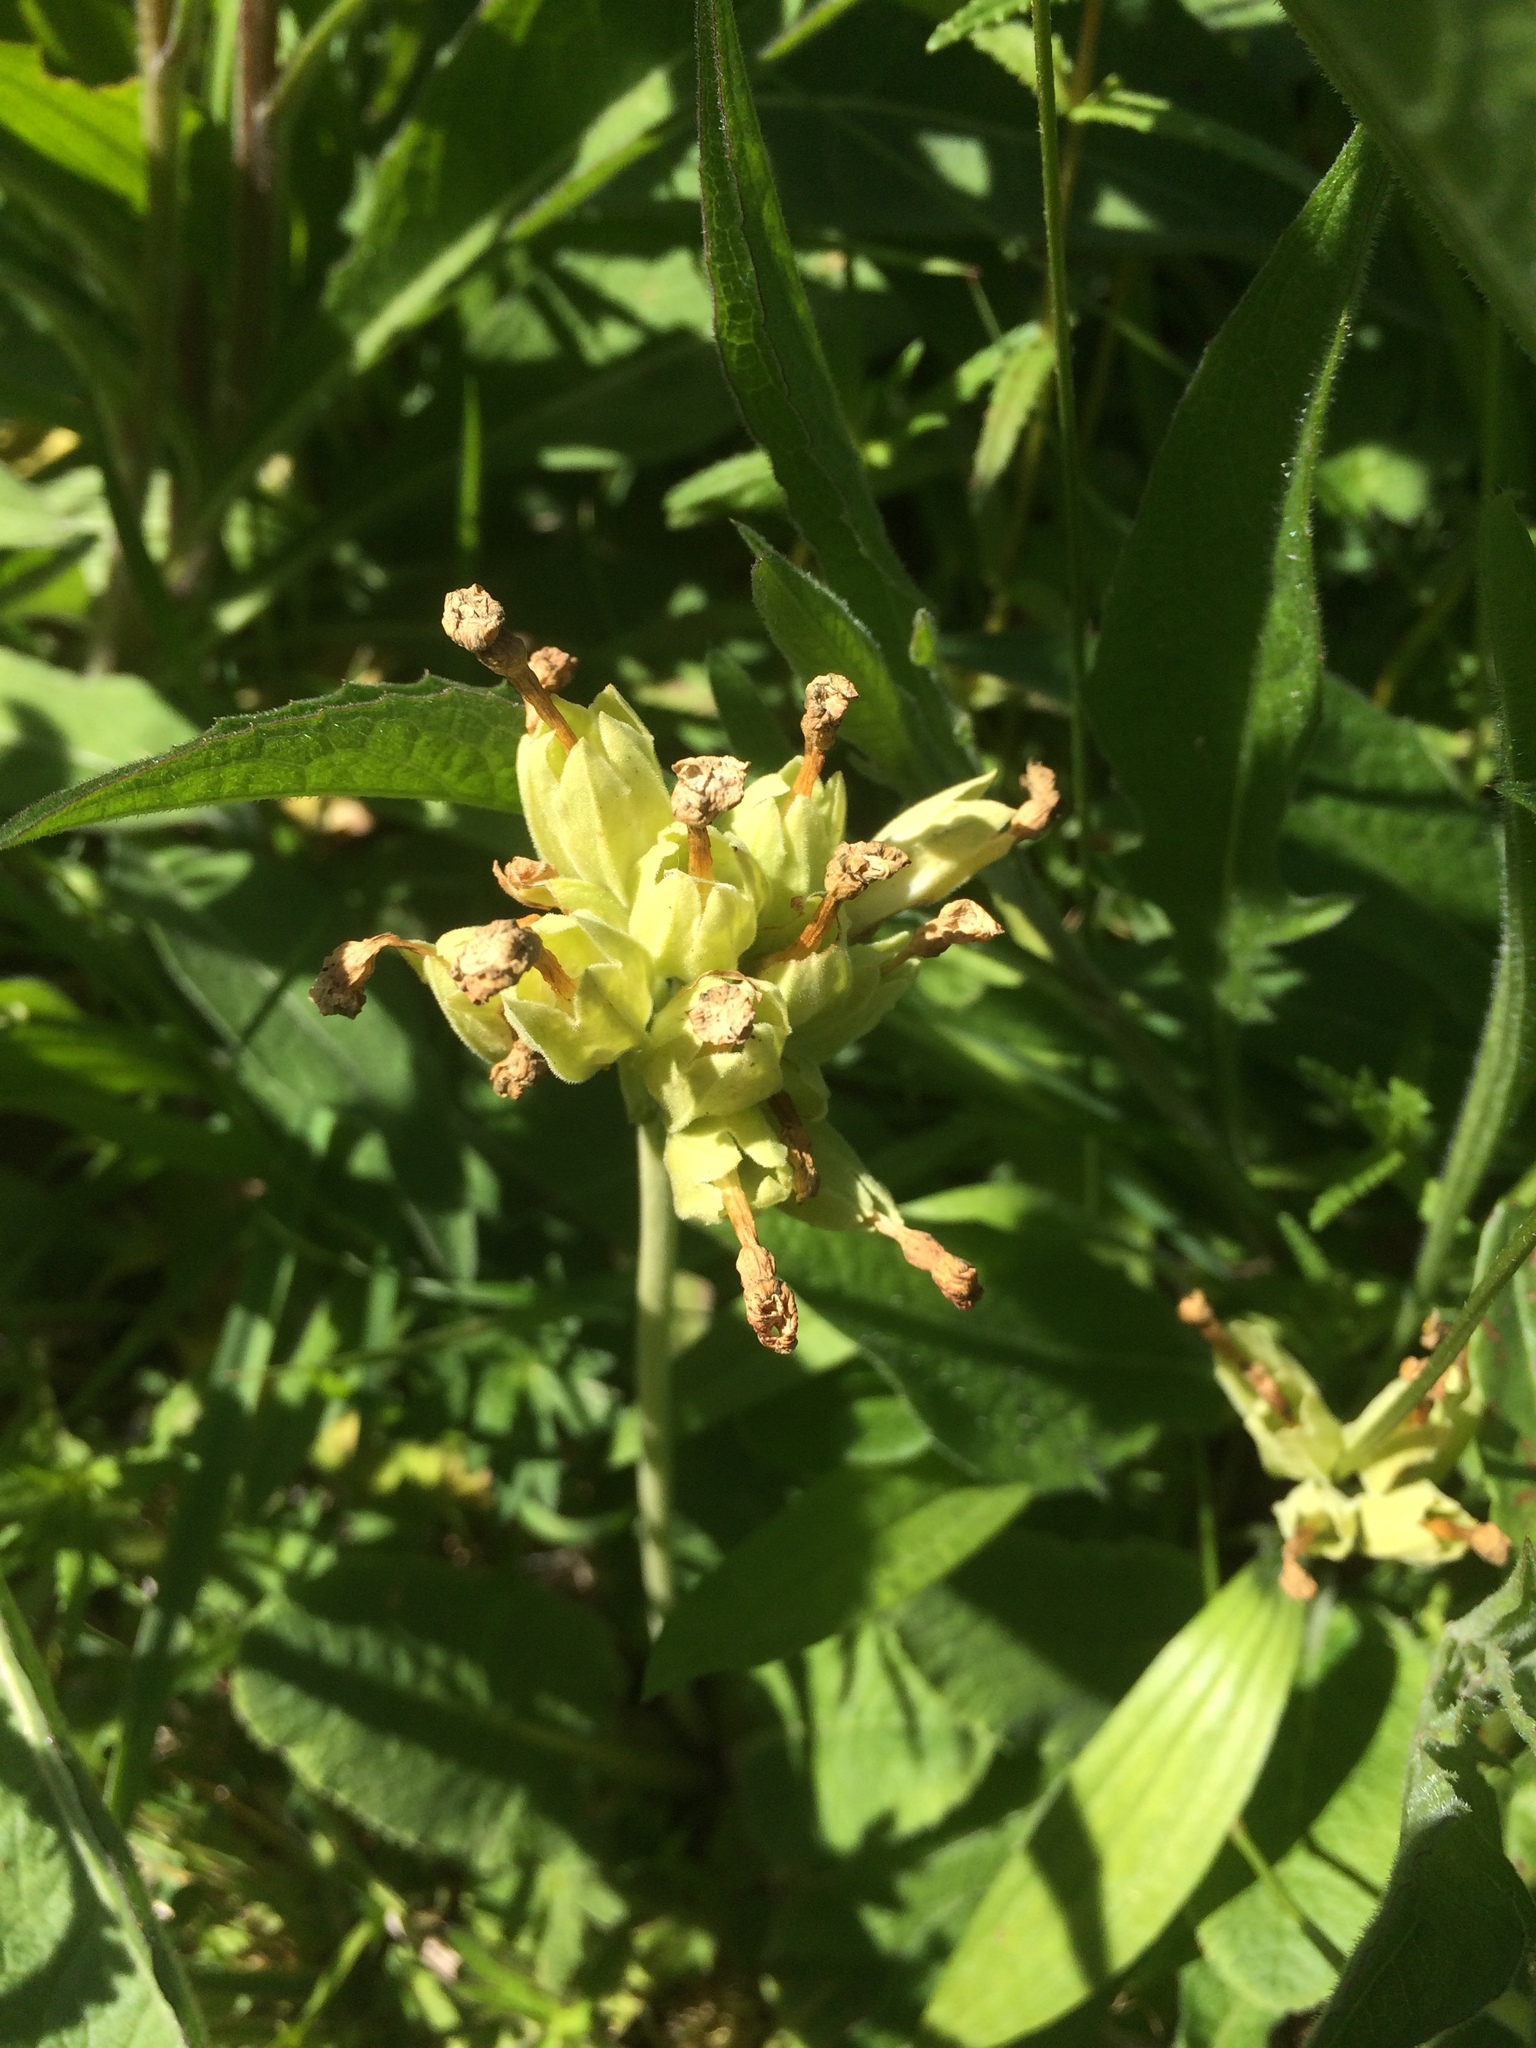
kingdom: Plantae
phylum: Tracheophyta
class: Magnoliopsida
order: Ericales
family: Primulaceae
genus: Primula
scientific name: Primula veris
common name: Cowslip
